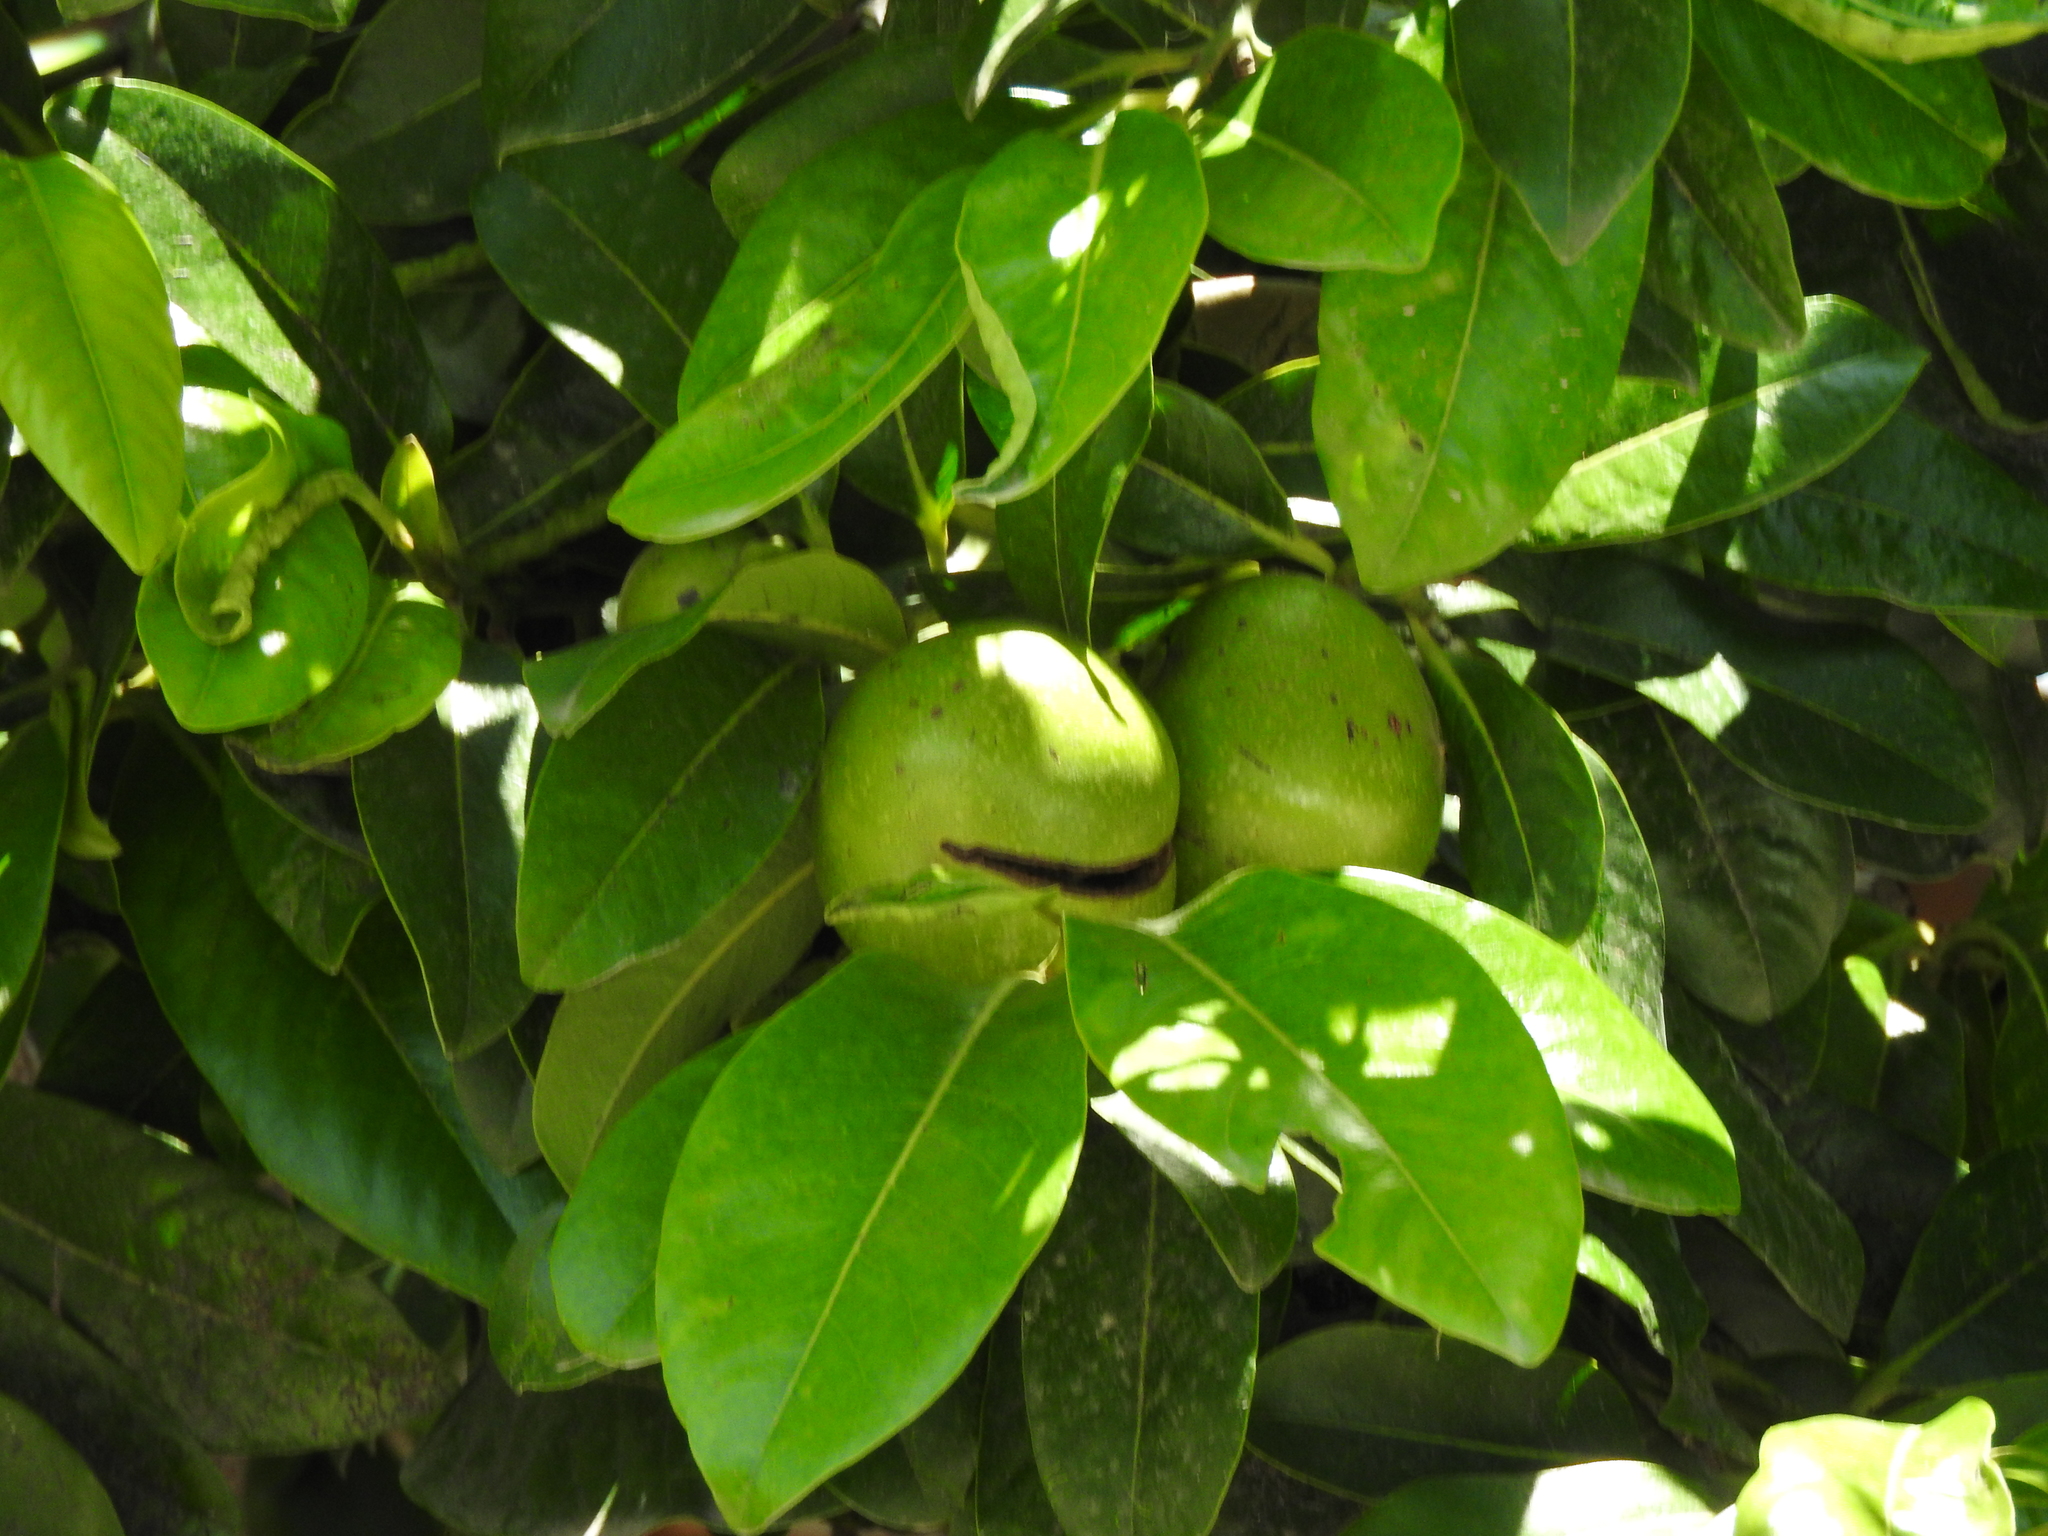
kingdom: Plantae
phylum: Tracheophyta
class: Magnoliopsida
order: Ericales
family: Ebenaceae
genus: Diospyros
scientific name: Diospyros nigra
